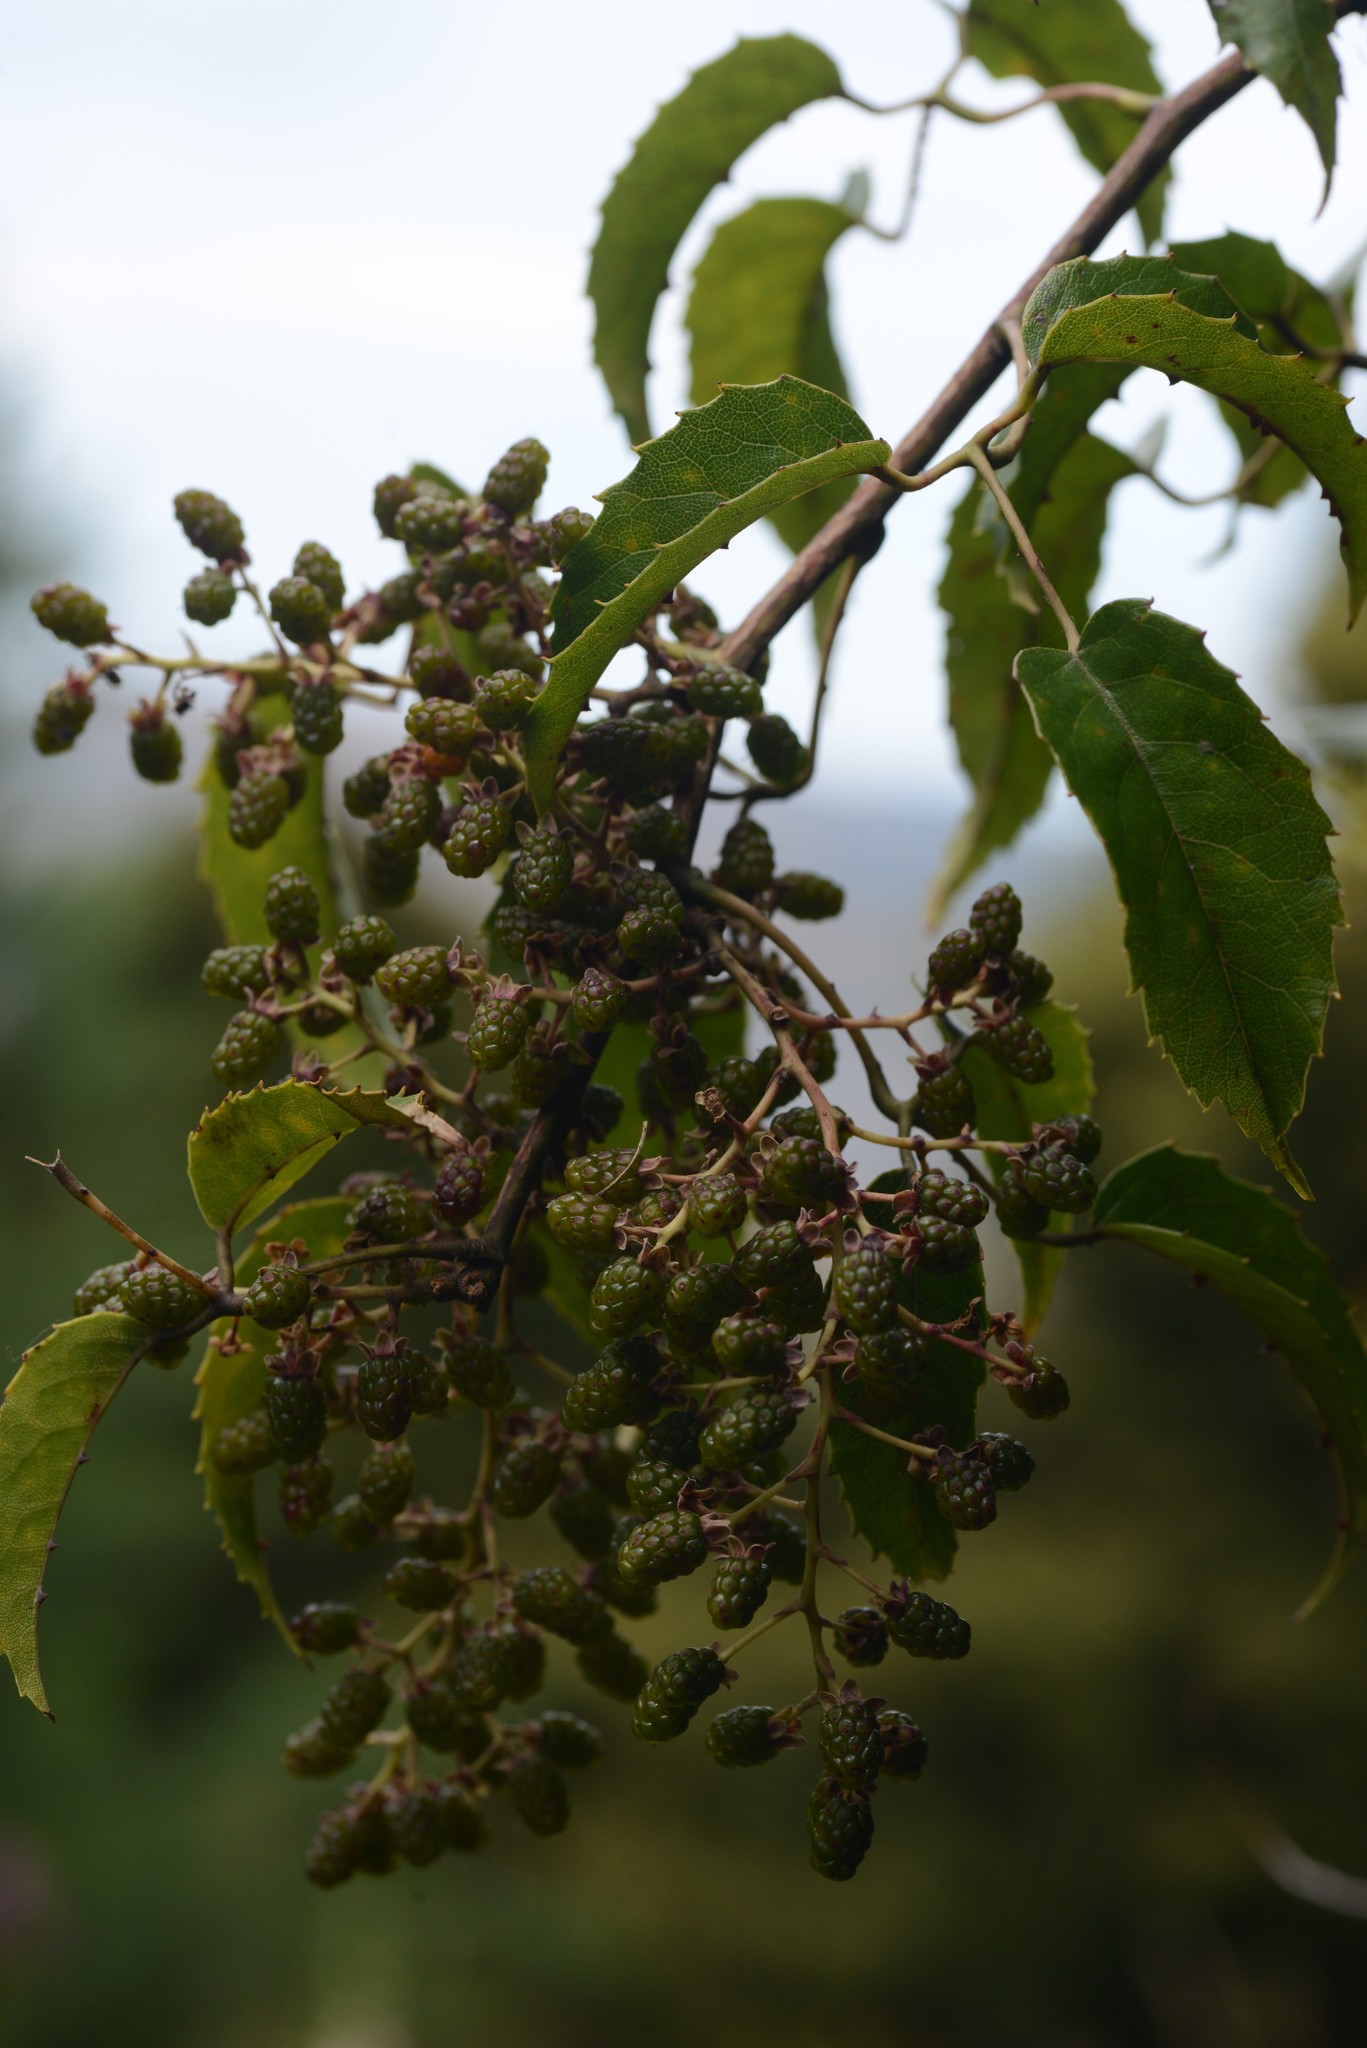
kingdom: Plantae
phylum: Tracheophyta
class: Magnoliopsida
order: Rosales
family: Rosaceae
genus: Rubus
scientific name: Rubus cissoides
